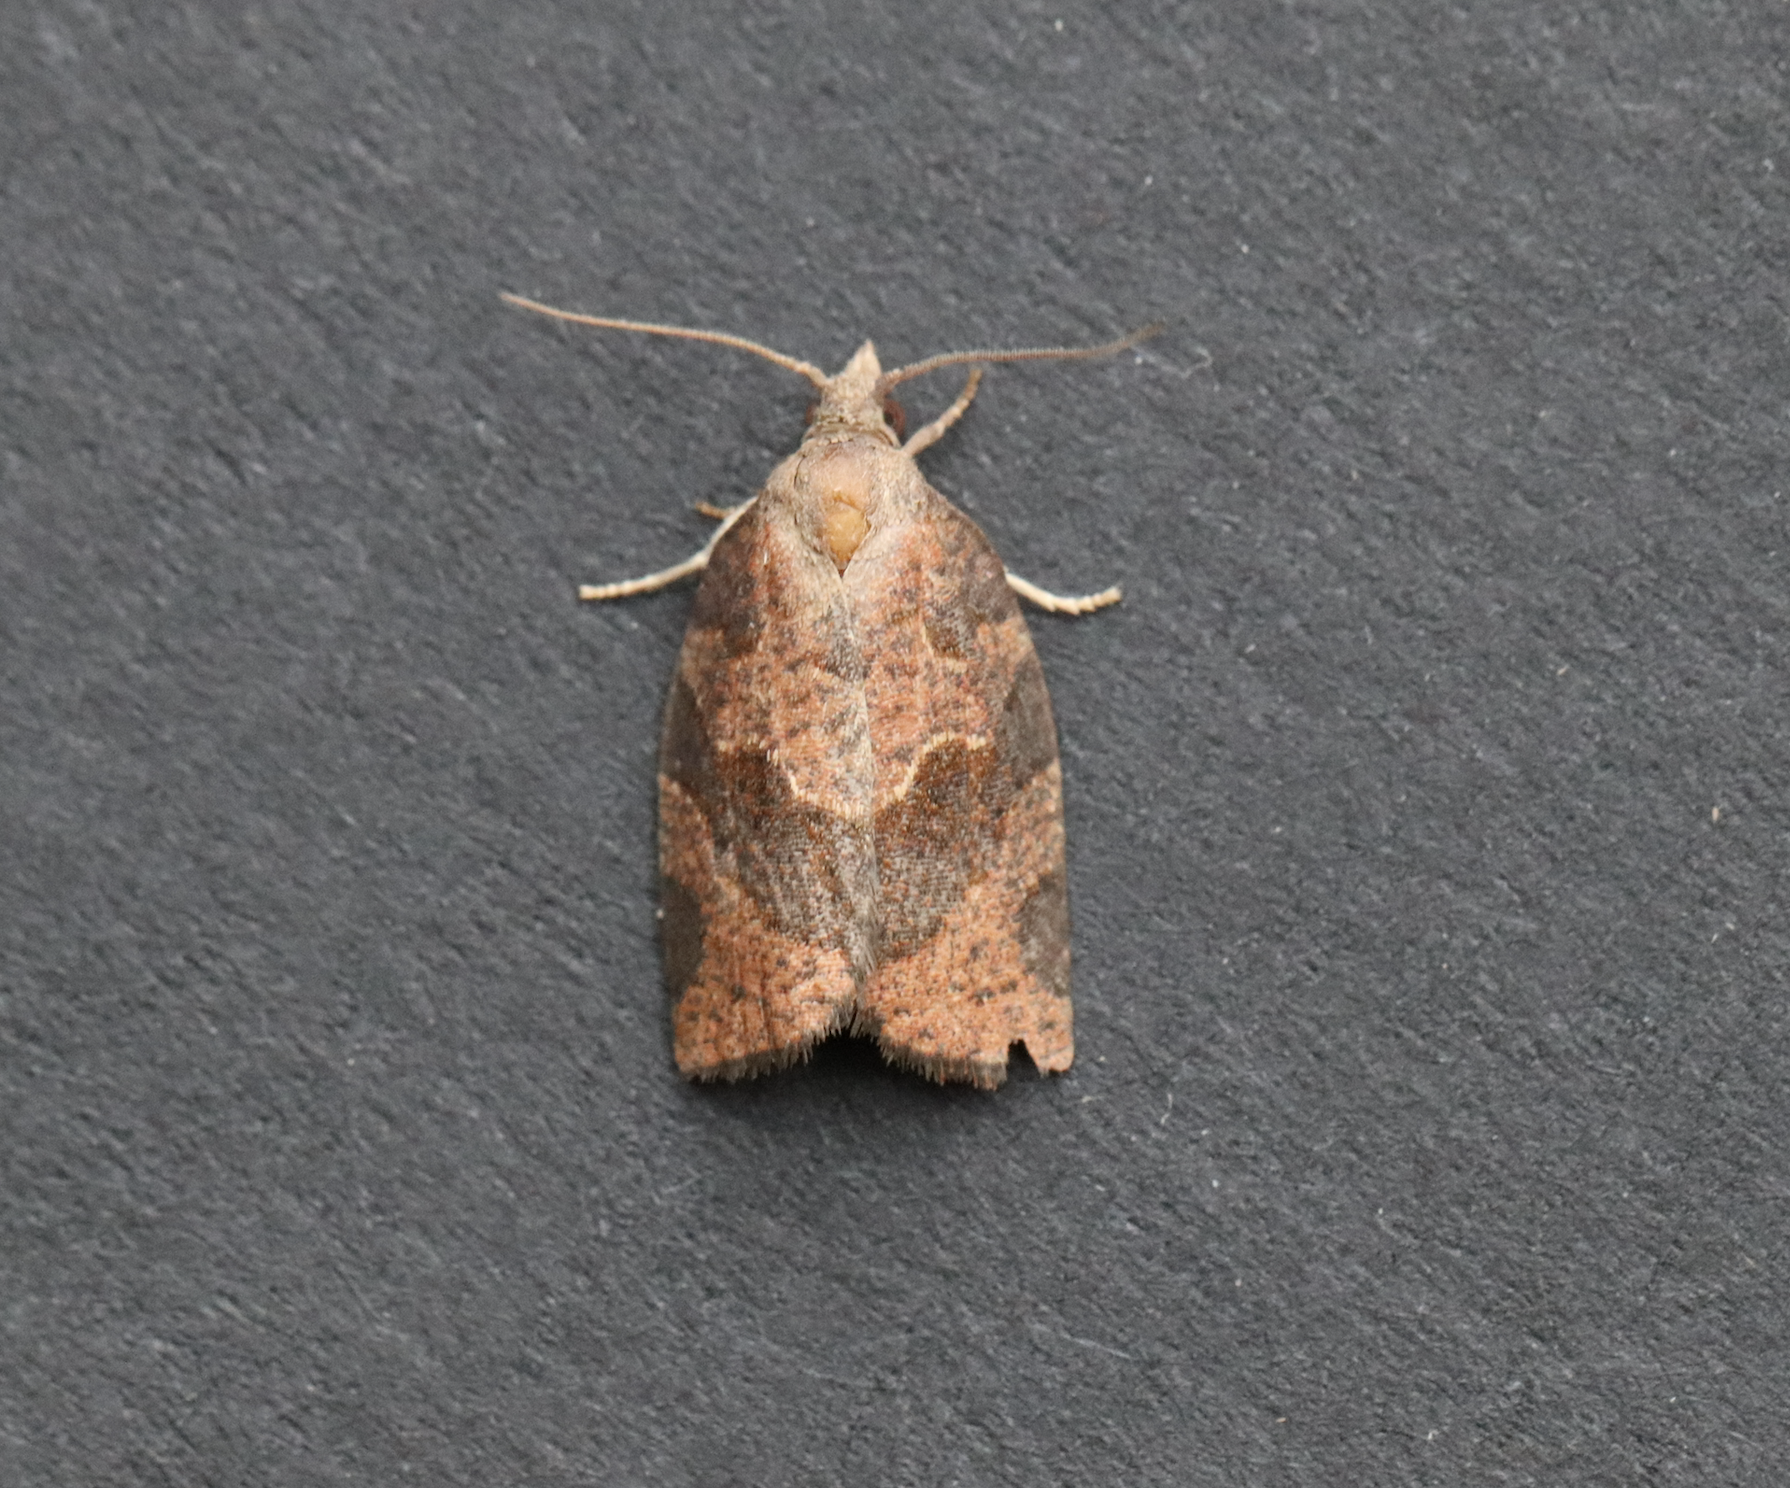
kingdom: Animalia
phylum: Arthropoda
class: Insecta
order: Lepidoptera
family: Tortricidae
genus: Pandemis
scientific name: Pandemis canadana
